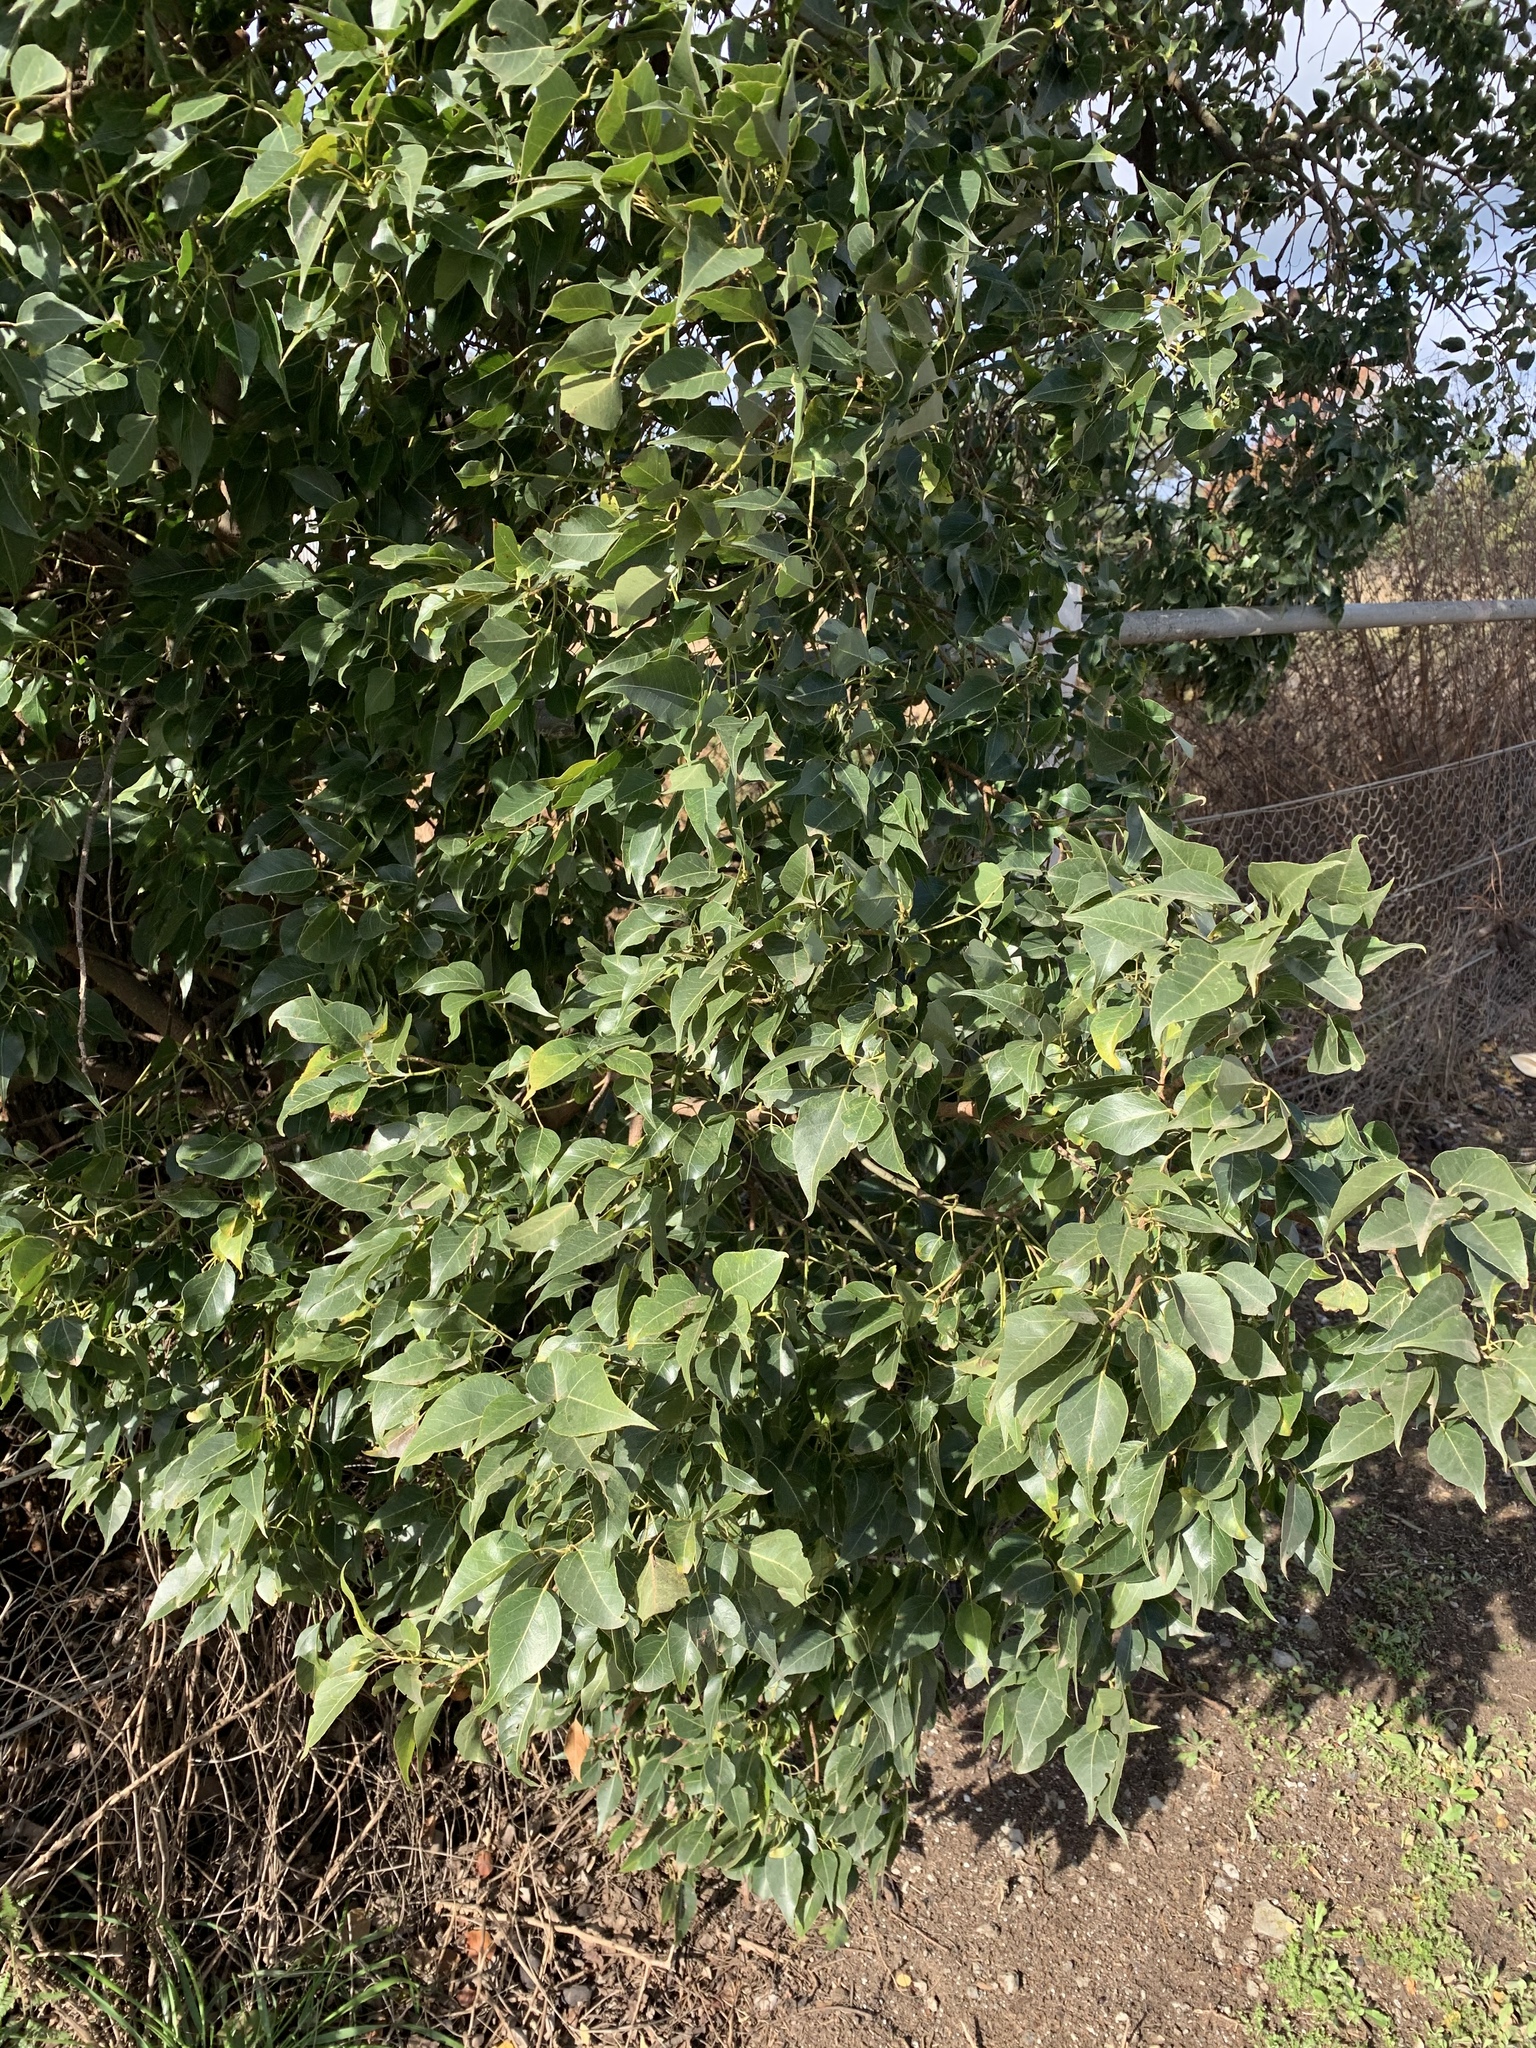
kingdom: Plantae
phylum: Tracheophyta
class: Magnoliopsida
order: Malvales
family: Malvaceae
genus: Brachychiton
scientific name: Brachychiton populneus
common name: Kurrajong
